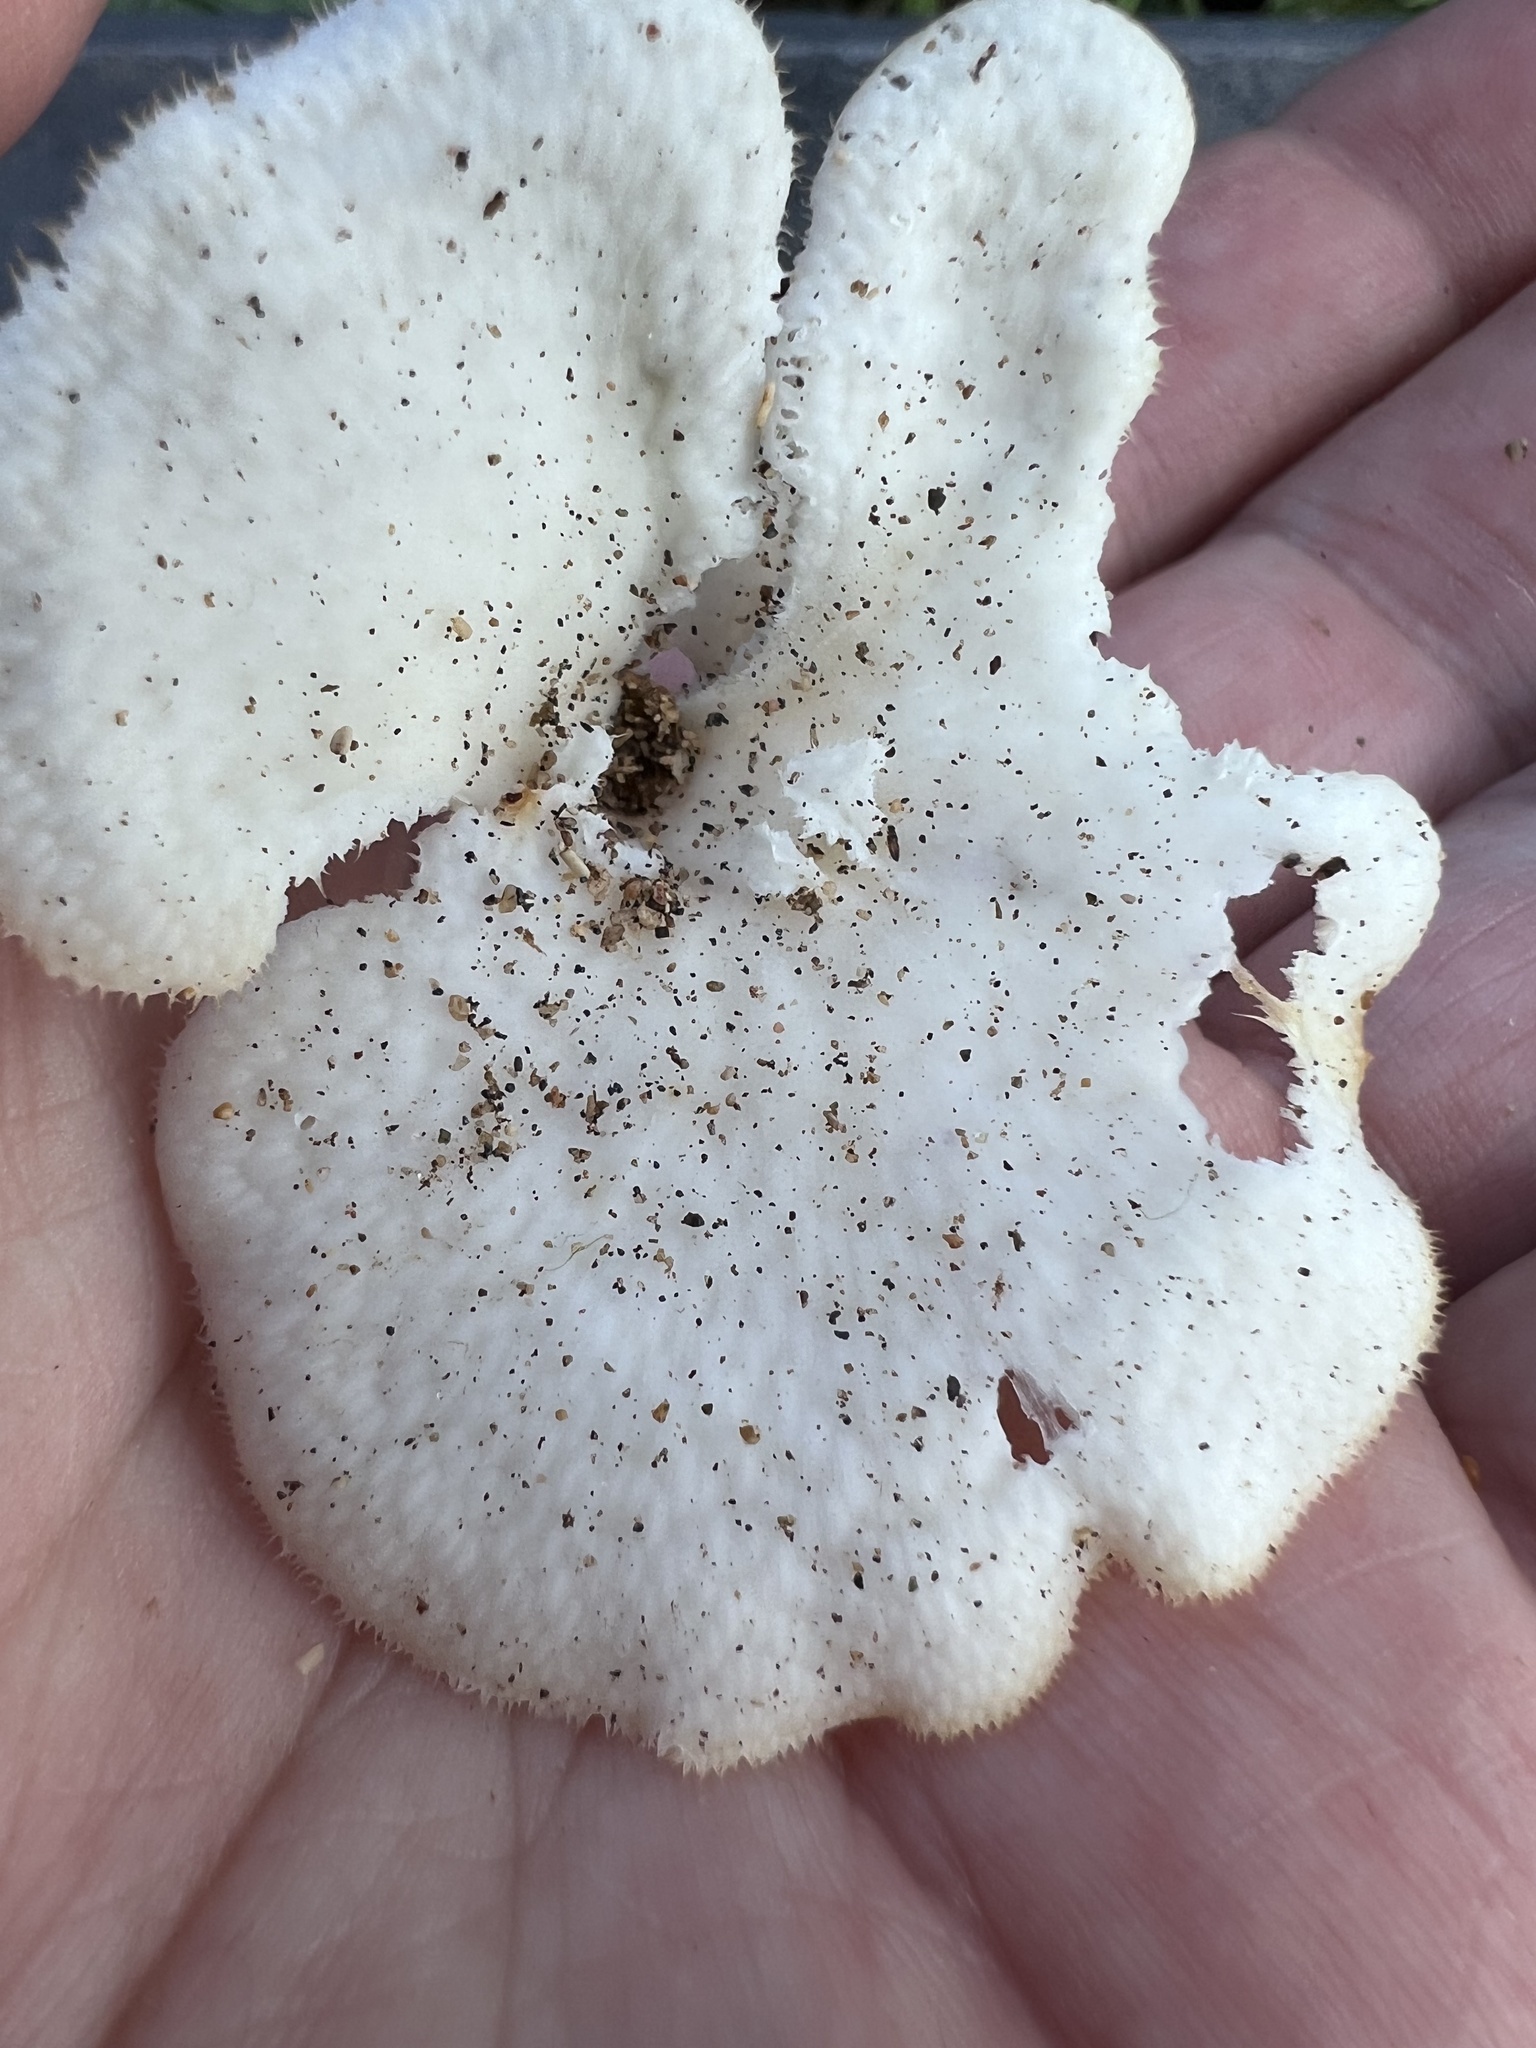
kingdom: Fungi
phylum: Basidiomycota
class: Agaricomycetes
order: Polyporales
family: Polyporaceae
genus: Favolus
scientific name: Favolus tenuiculus
